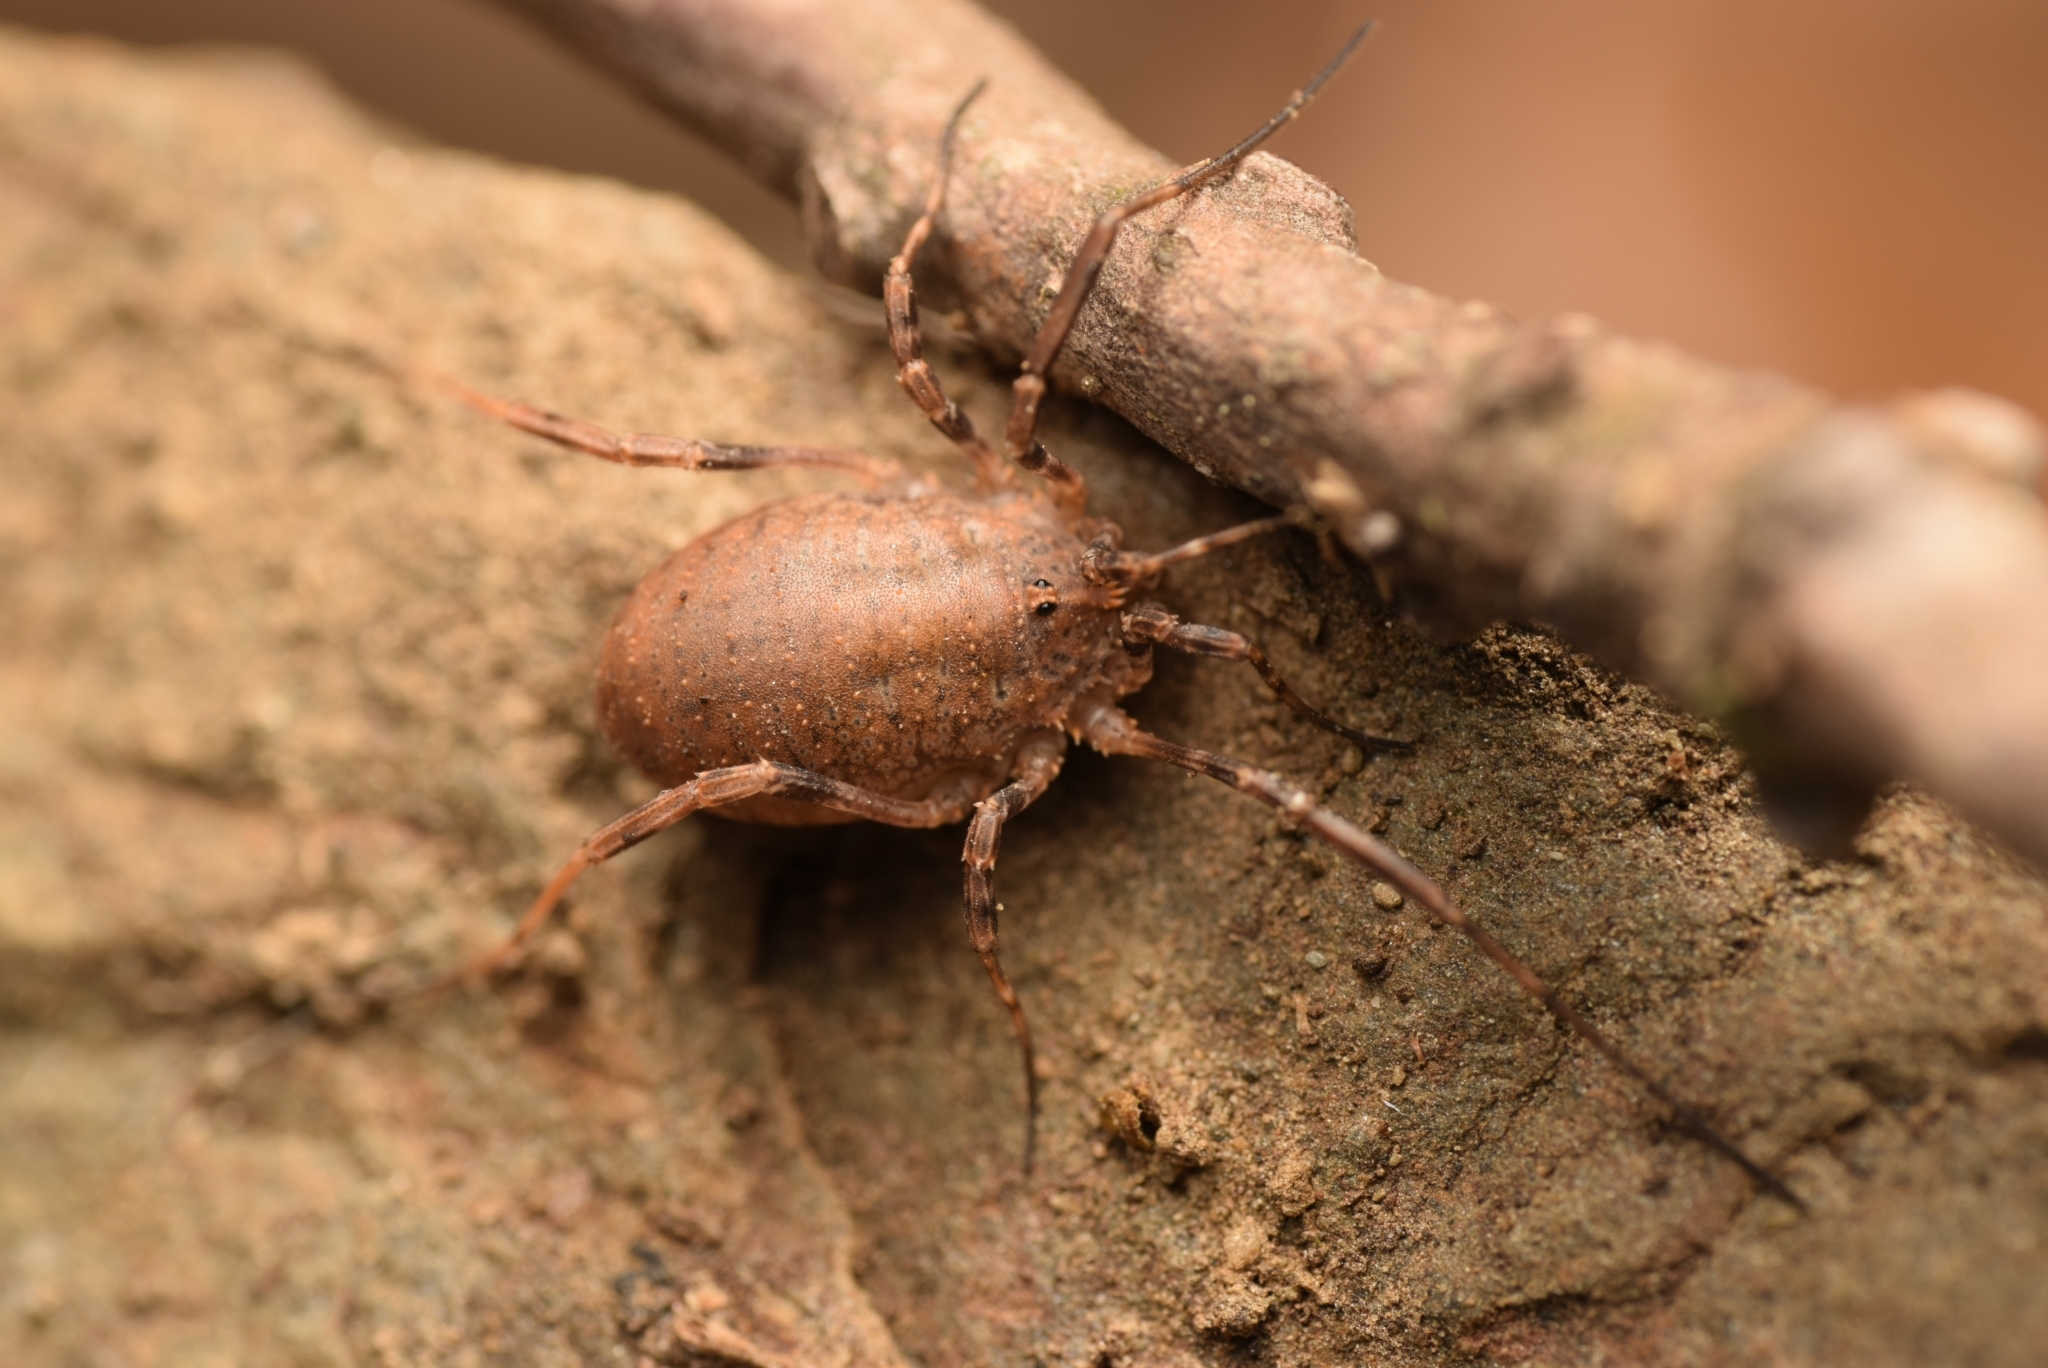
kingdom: Animalia
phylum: Arthropoda
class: Arachnida
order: Opiliones
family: Phalangiidae
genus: Odiellus
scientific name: Odiellus spinosus
